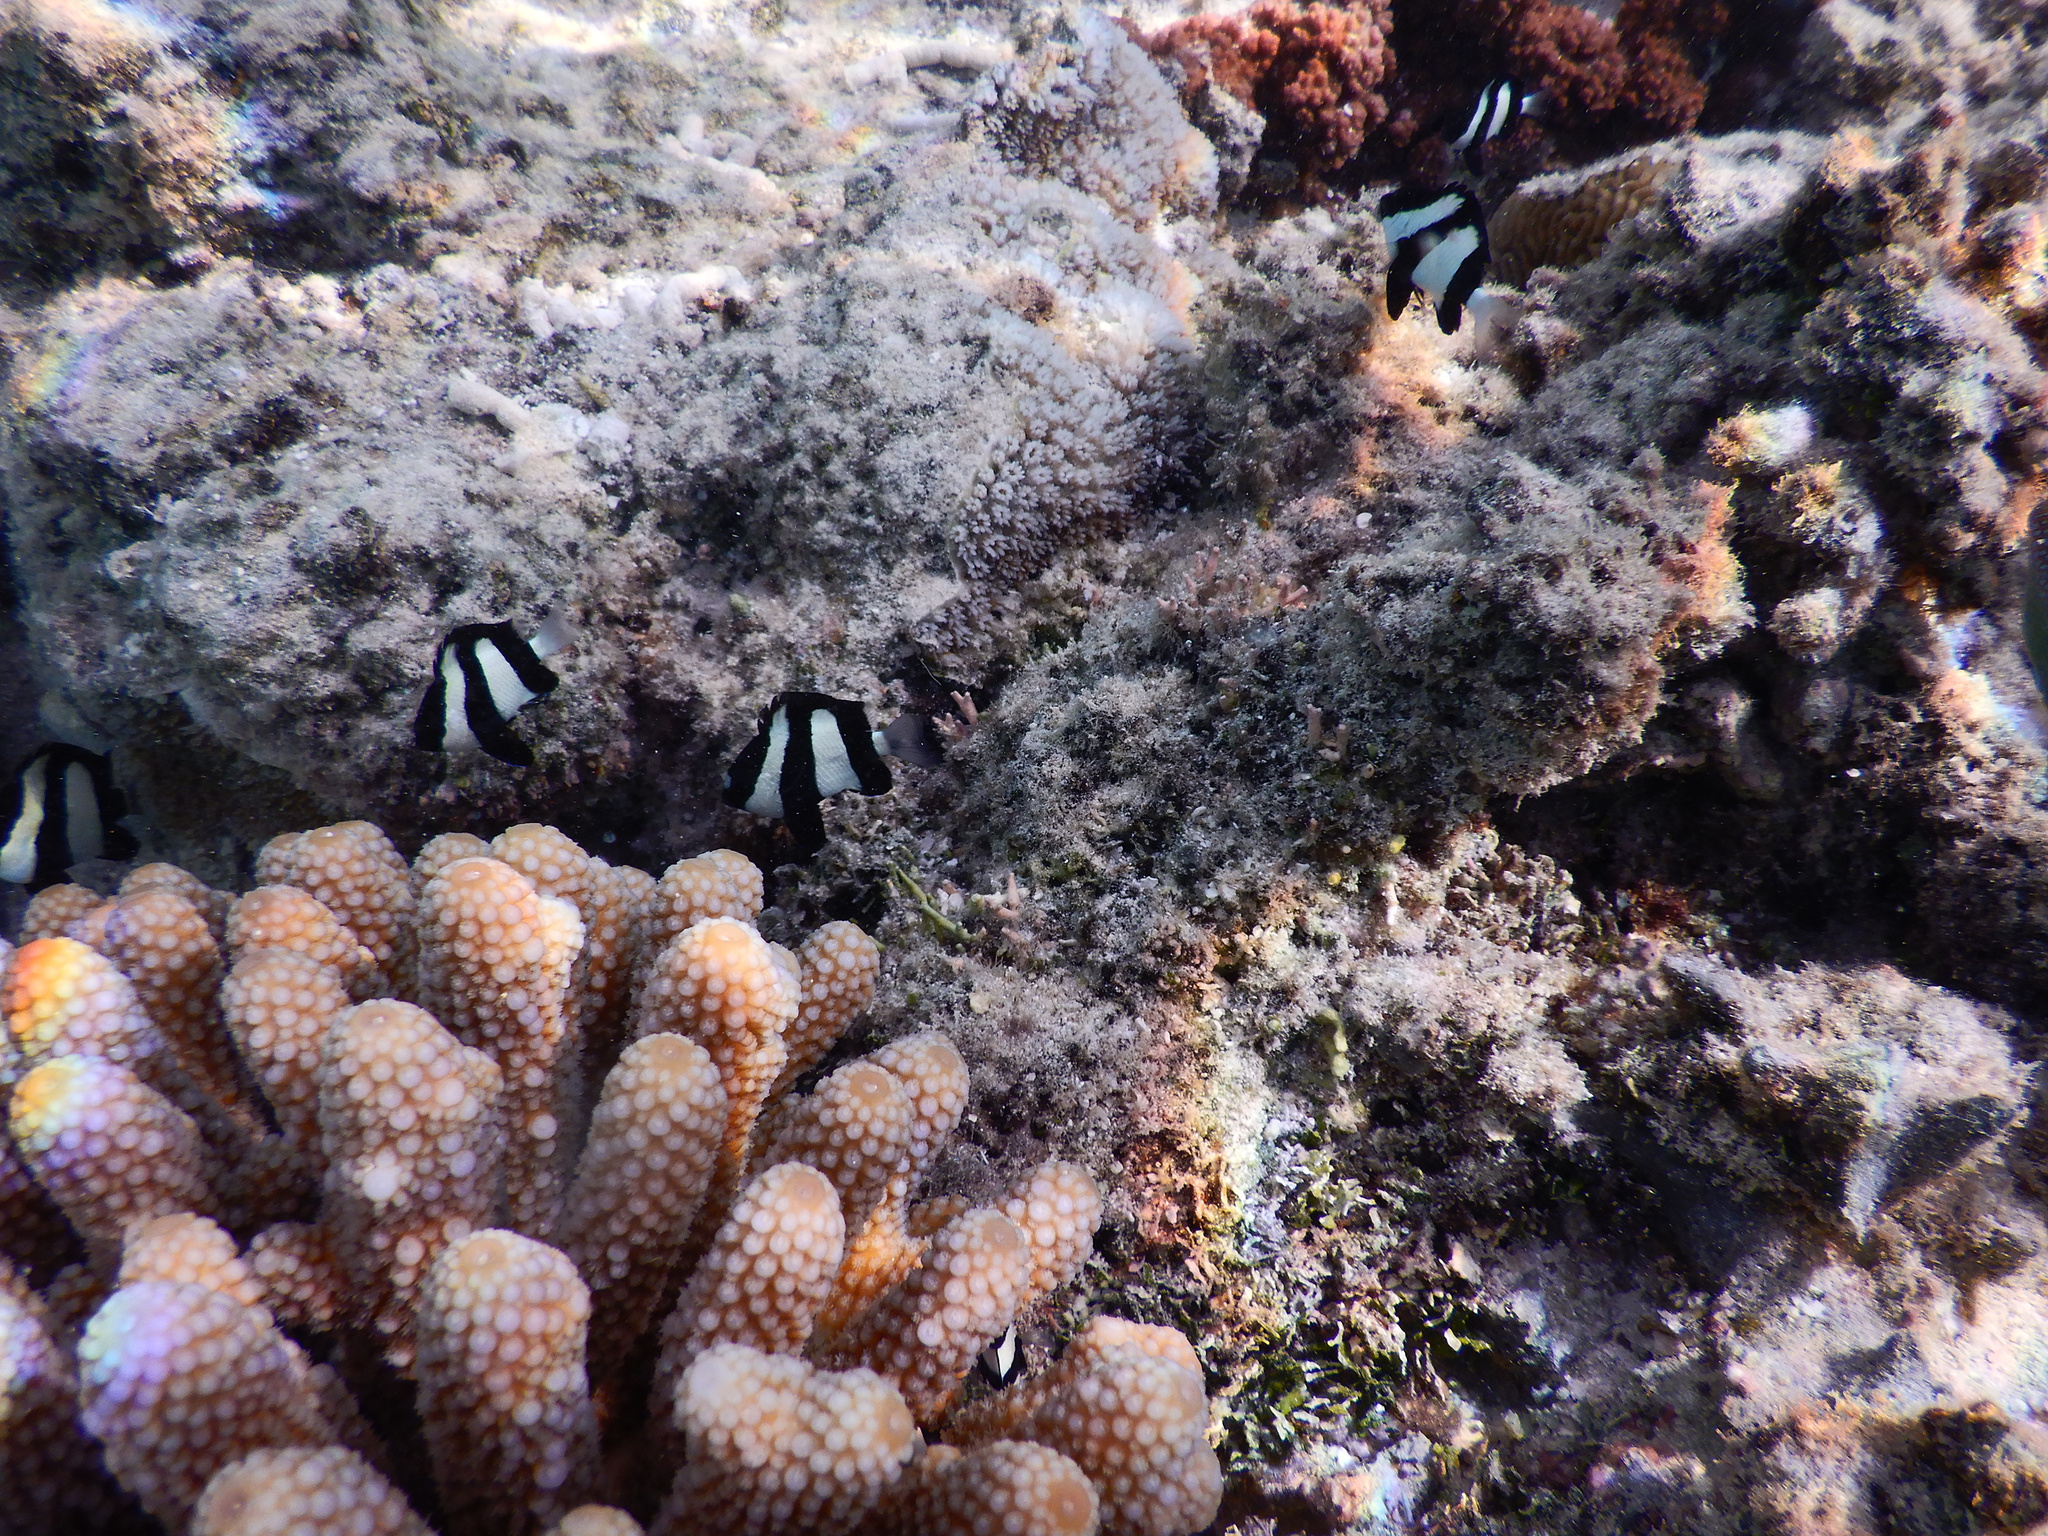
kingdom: Animalia
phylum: Chordata
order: Perciformes
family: Pomacentridae
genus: Dascyllus
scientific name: Dascyllus aruanus
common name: Humbug dascyllus
